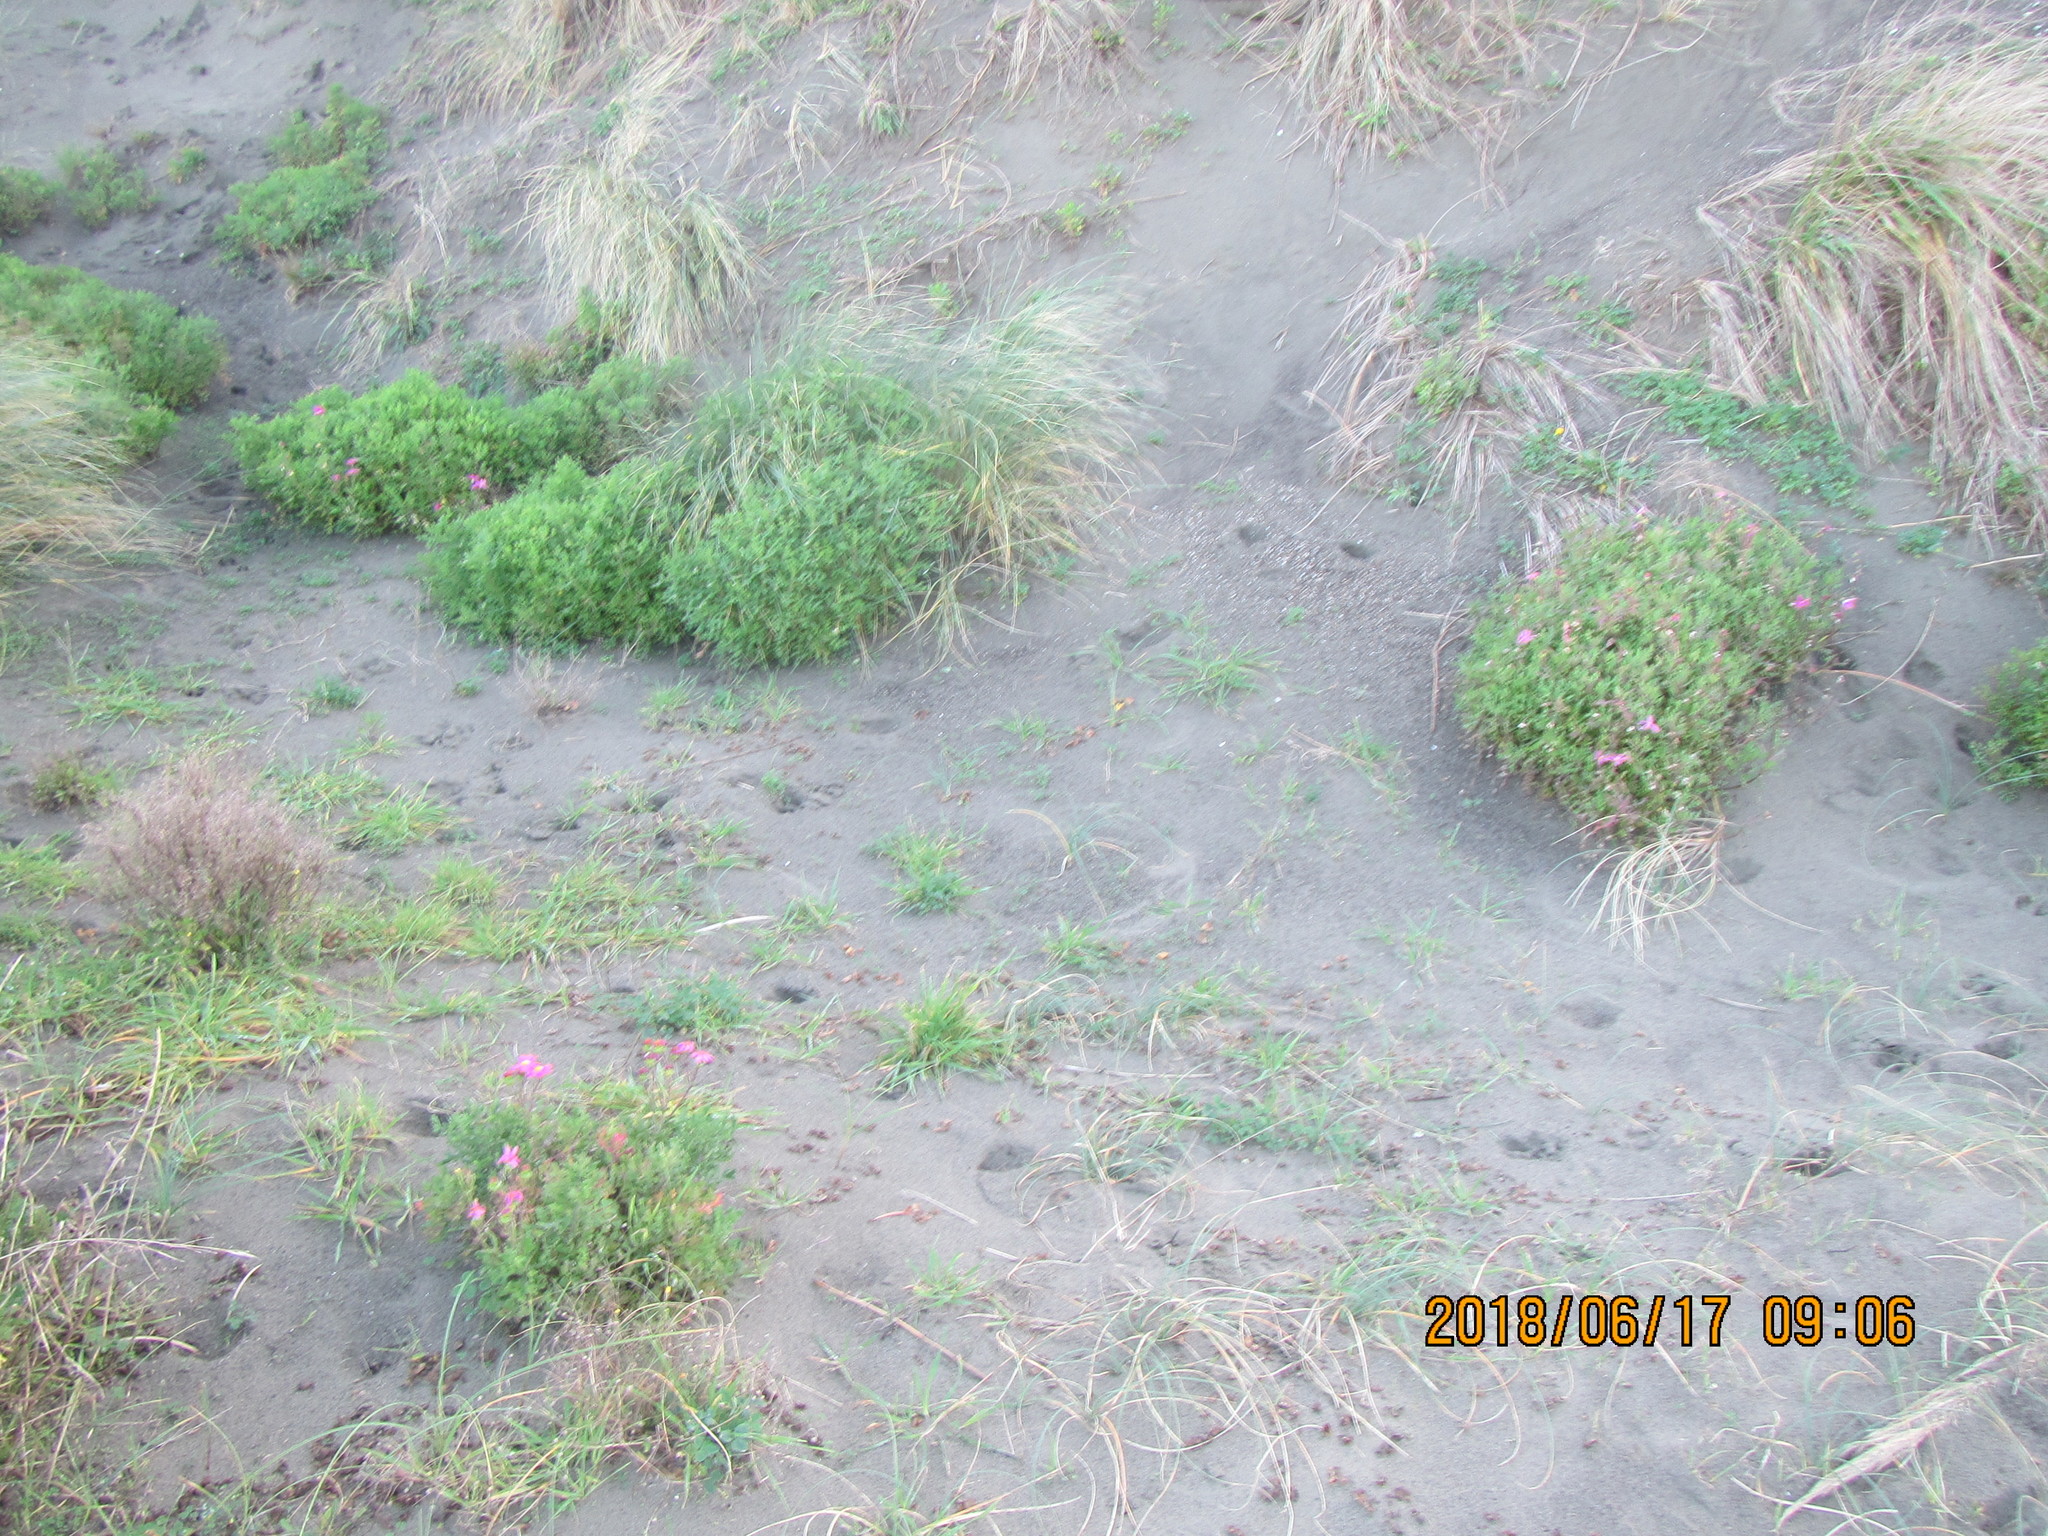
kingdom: Plantae
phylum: Tracheophyta
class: Magnoliopsida
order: Asterales
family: Asteraceae
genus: Senecio
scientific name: Senecio elegans
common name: Purple groundsel
